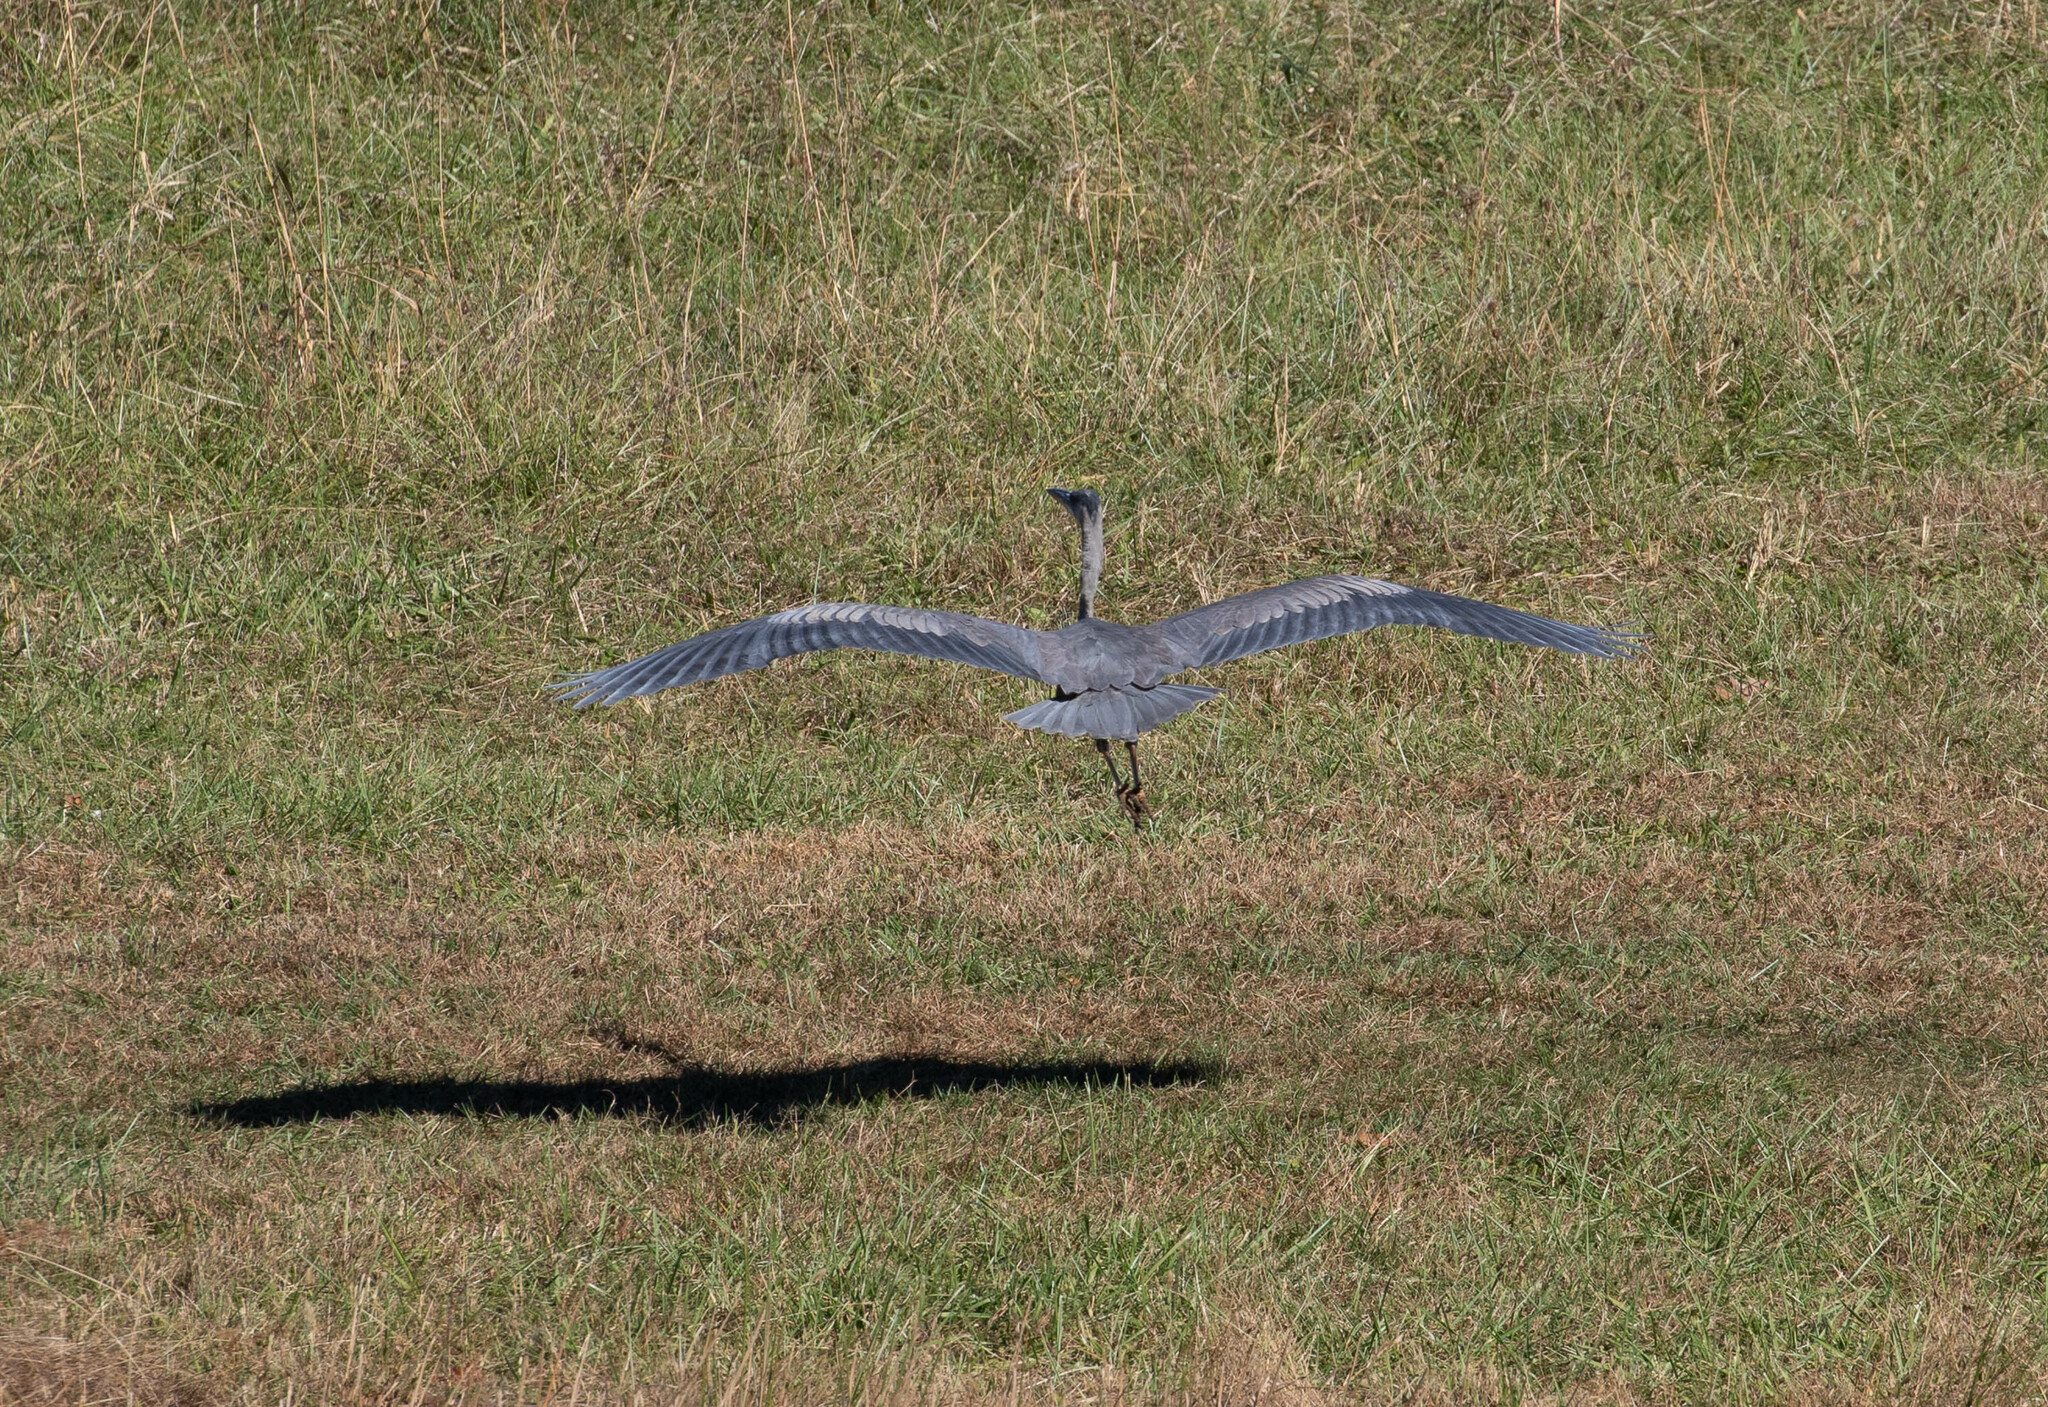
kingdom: Animalia
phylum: Chordata
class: Aves
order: Pelecaniformes
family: Ardeidae
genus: Ardea
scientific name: Ardea herodias
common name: Great blue heron
